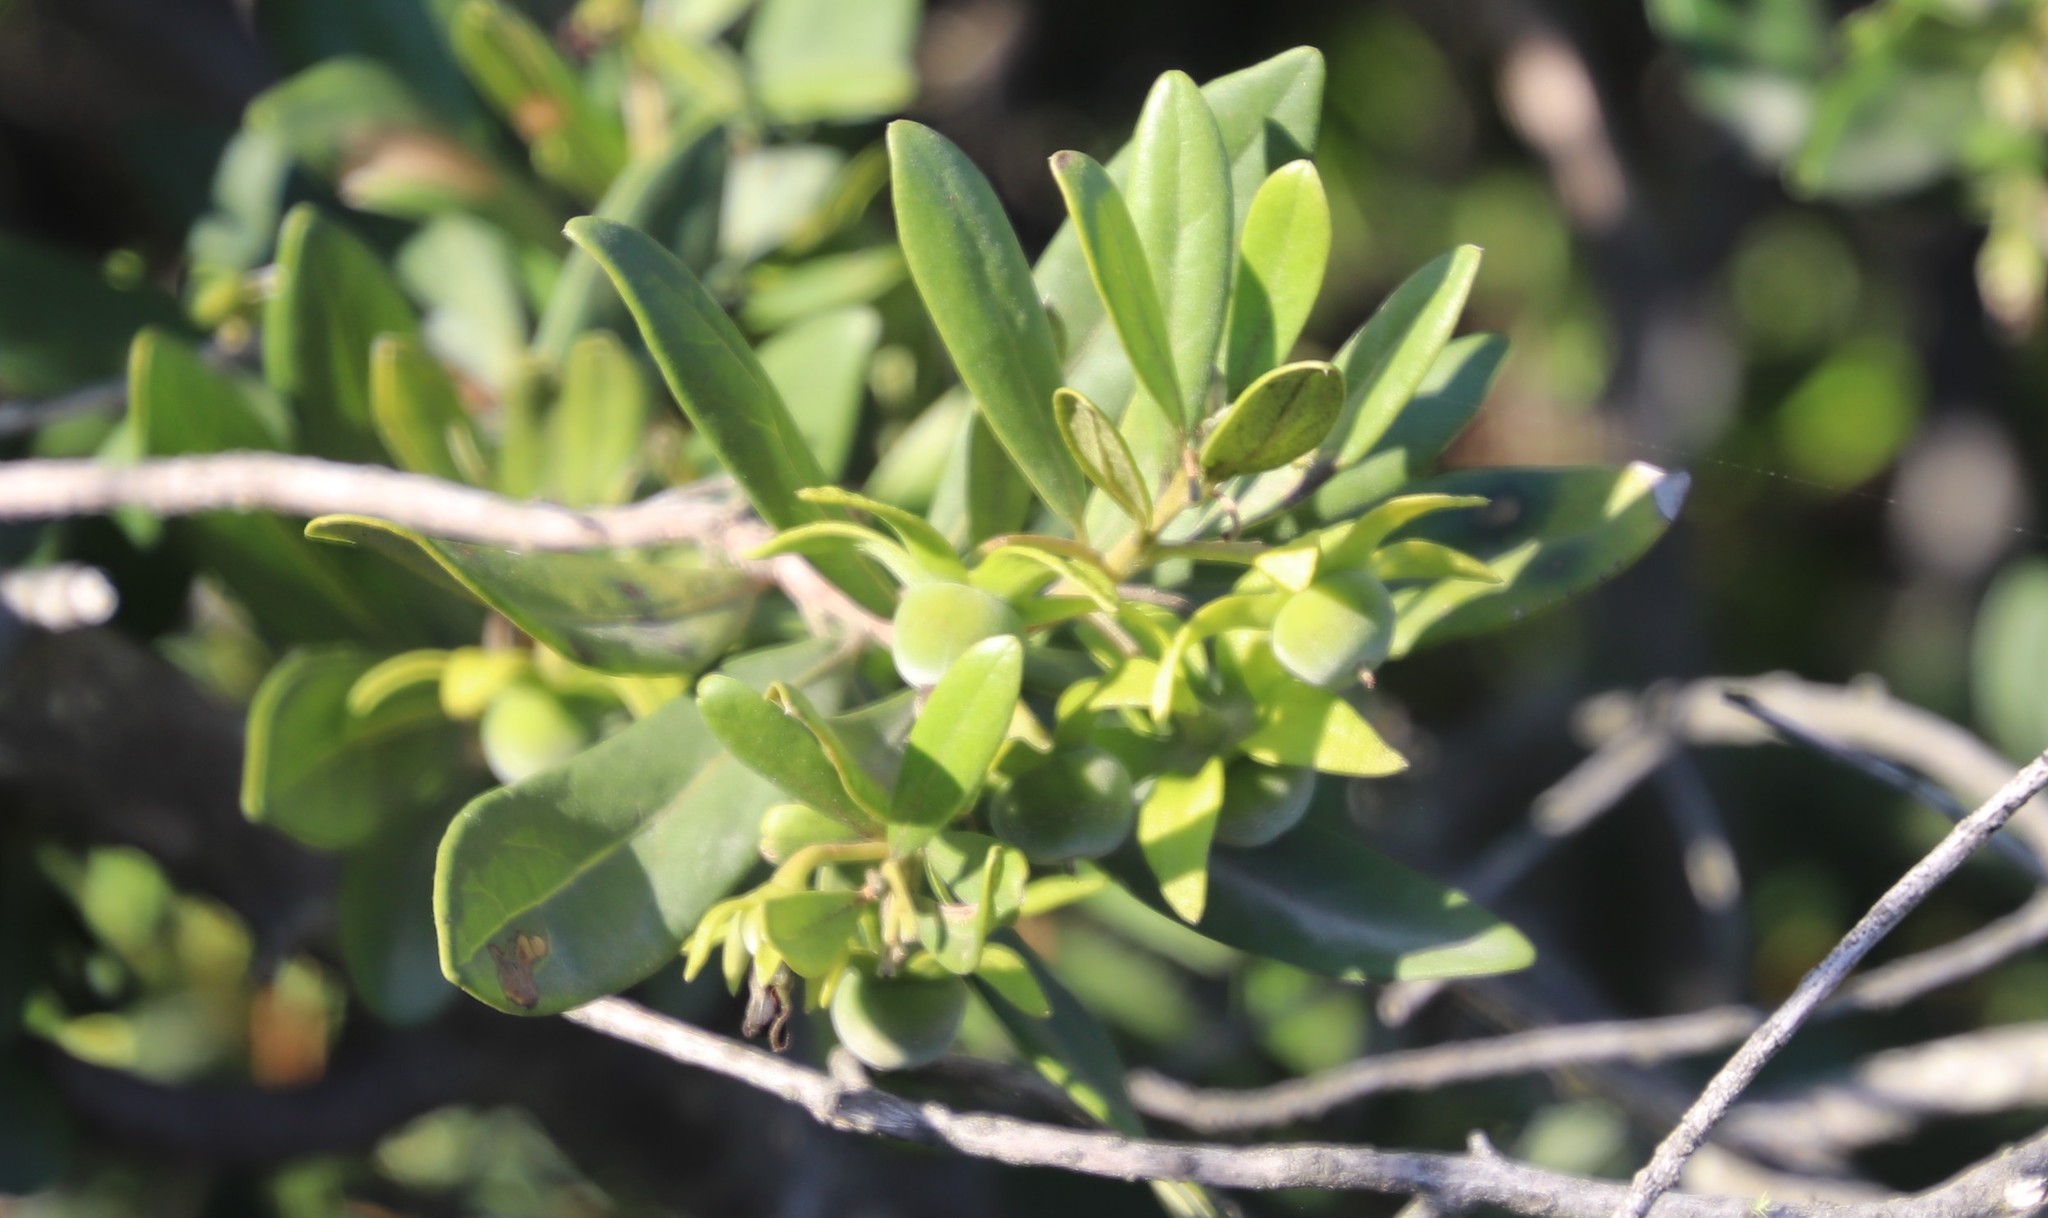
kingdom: Plantae
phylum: Tracheophyta
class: Magnoliopsida
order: Ericales
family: Ebenaceae
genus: Diospyros
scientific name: Diospyros dichrophylla
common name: Common star-apple
